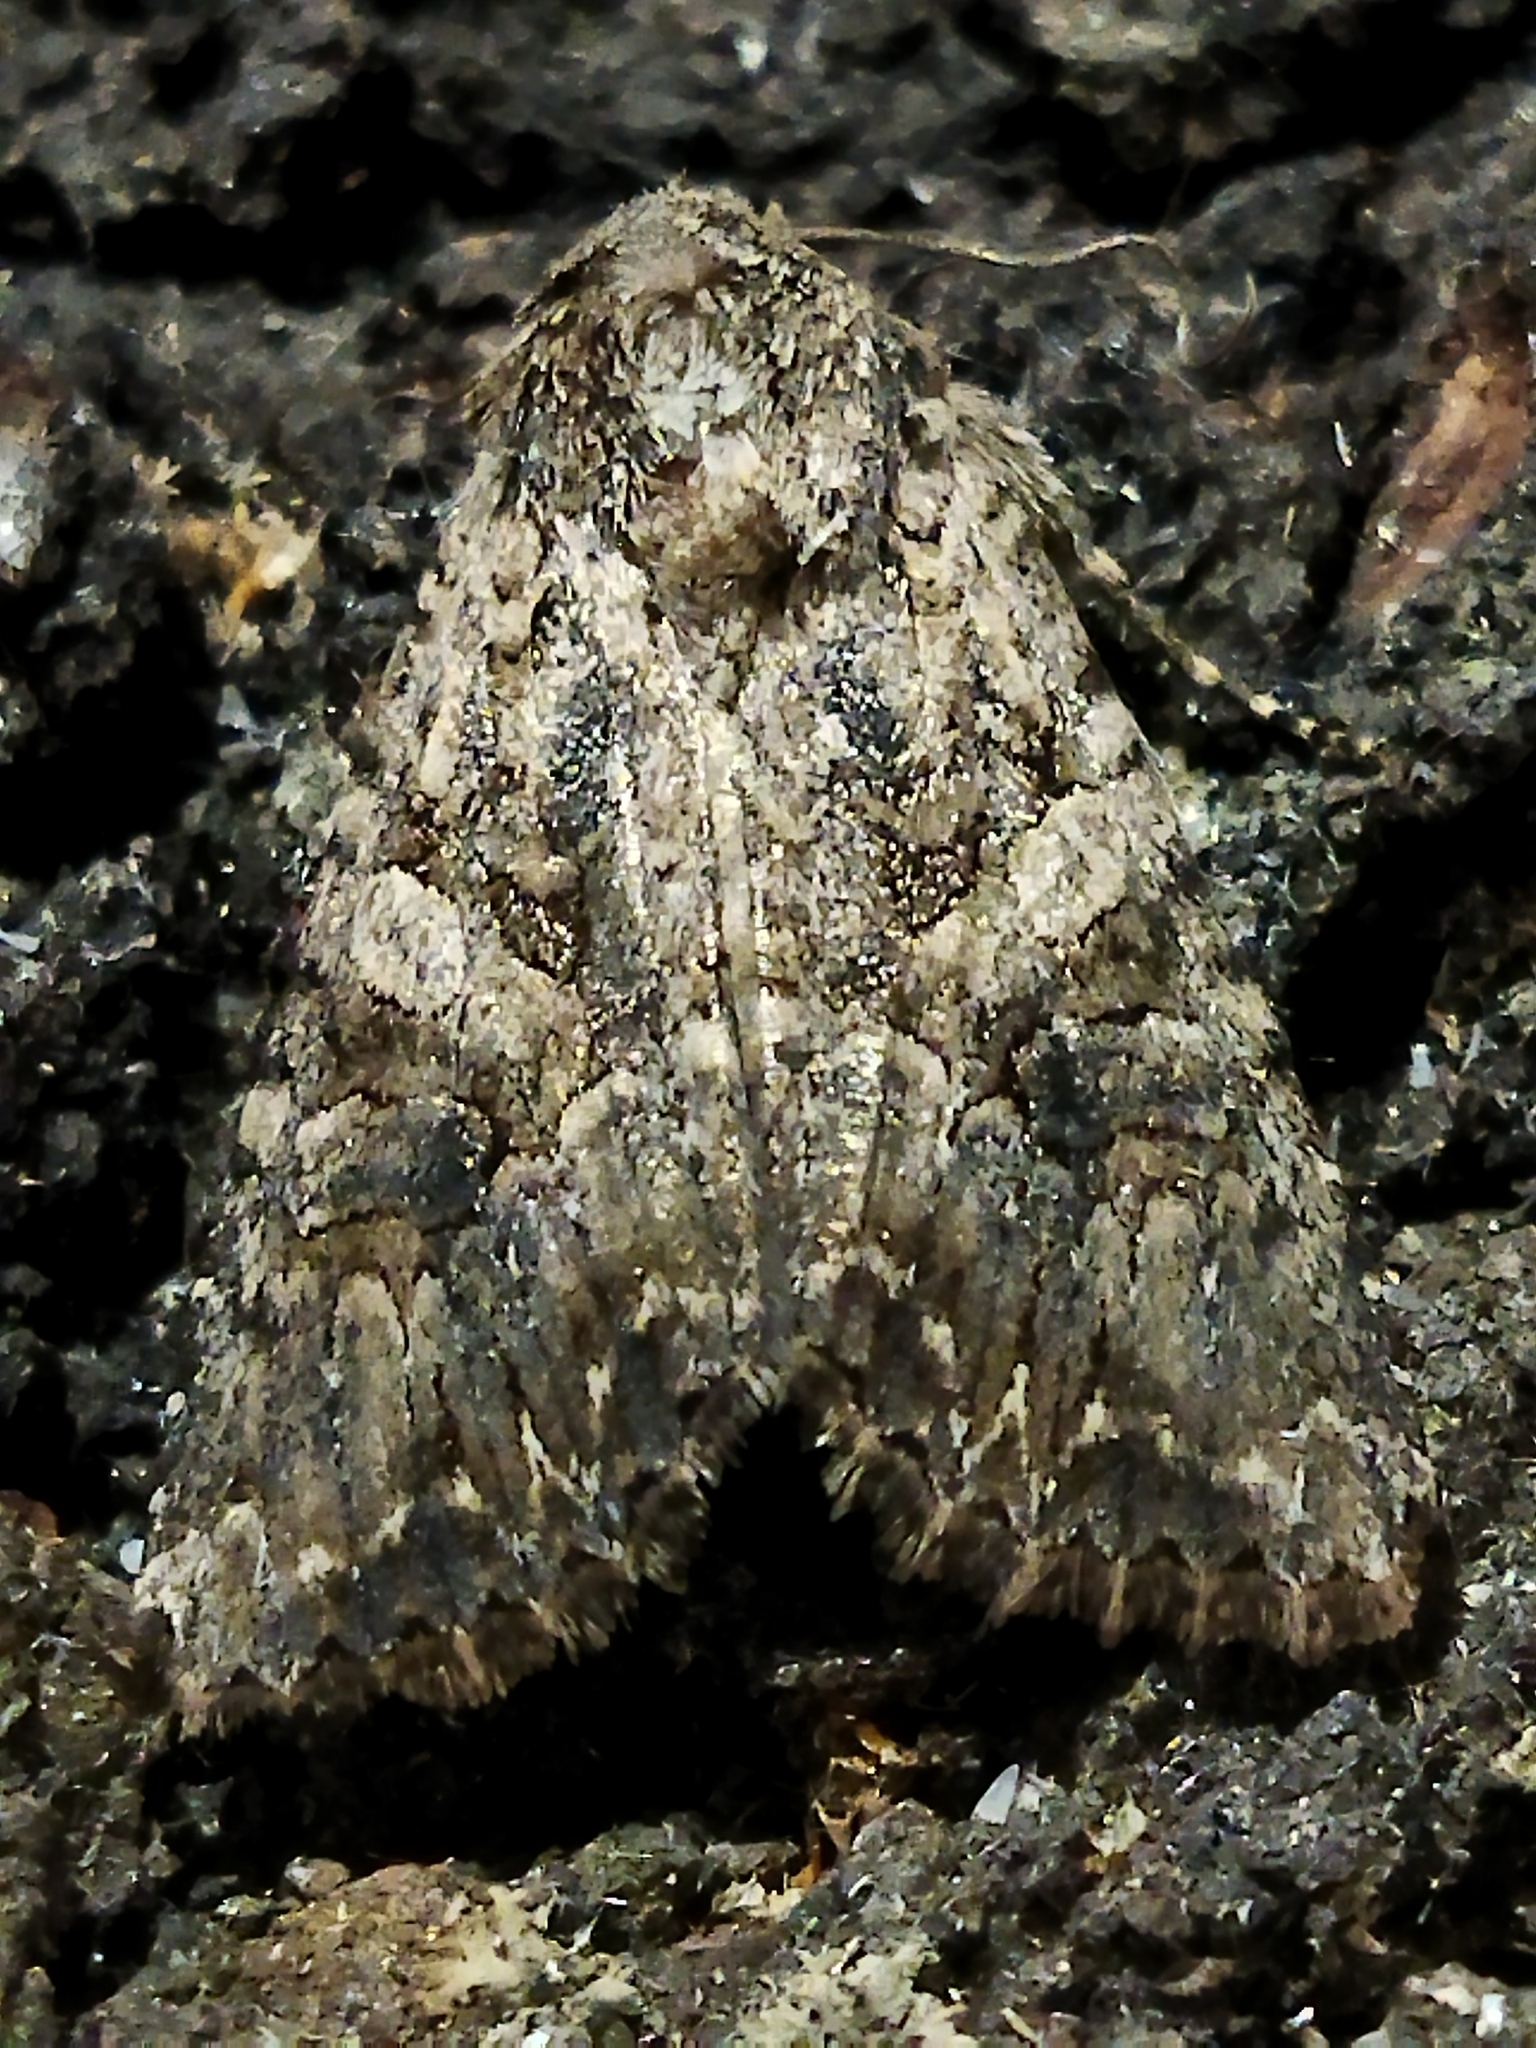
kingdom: Animalia
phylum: Arthropoda
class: Insecta
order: Lepidoptera
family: Noctuidae
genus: Anarta
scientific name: Anarta trifolii
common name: Clover cutworm moth
